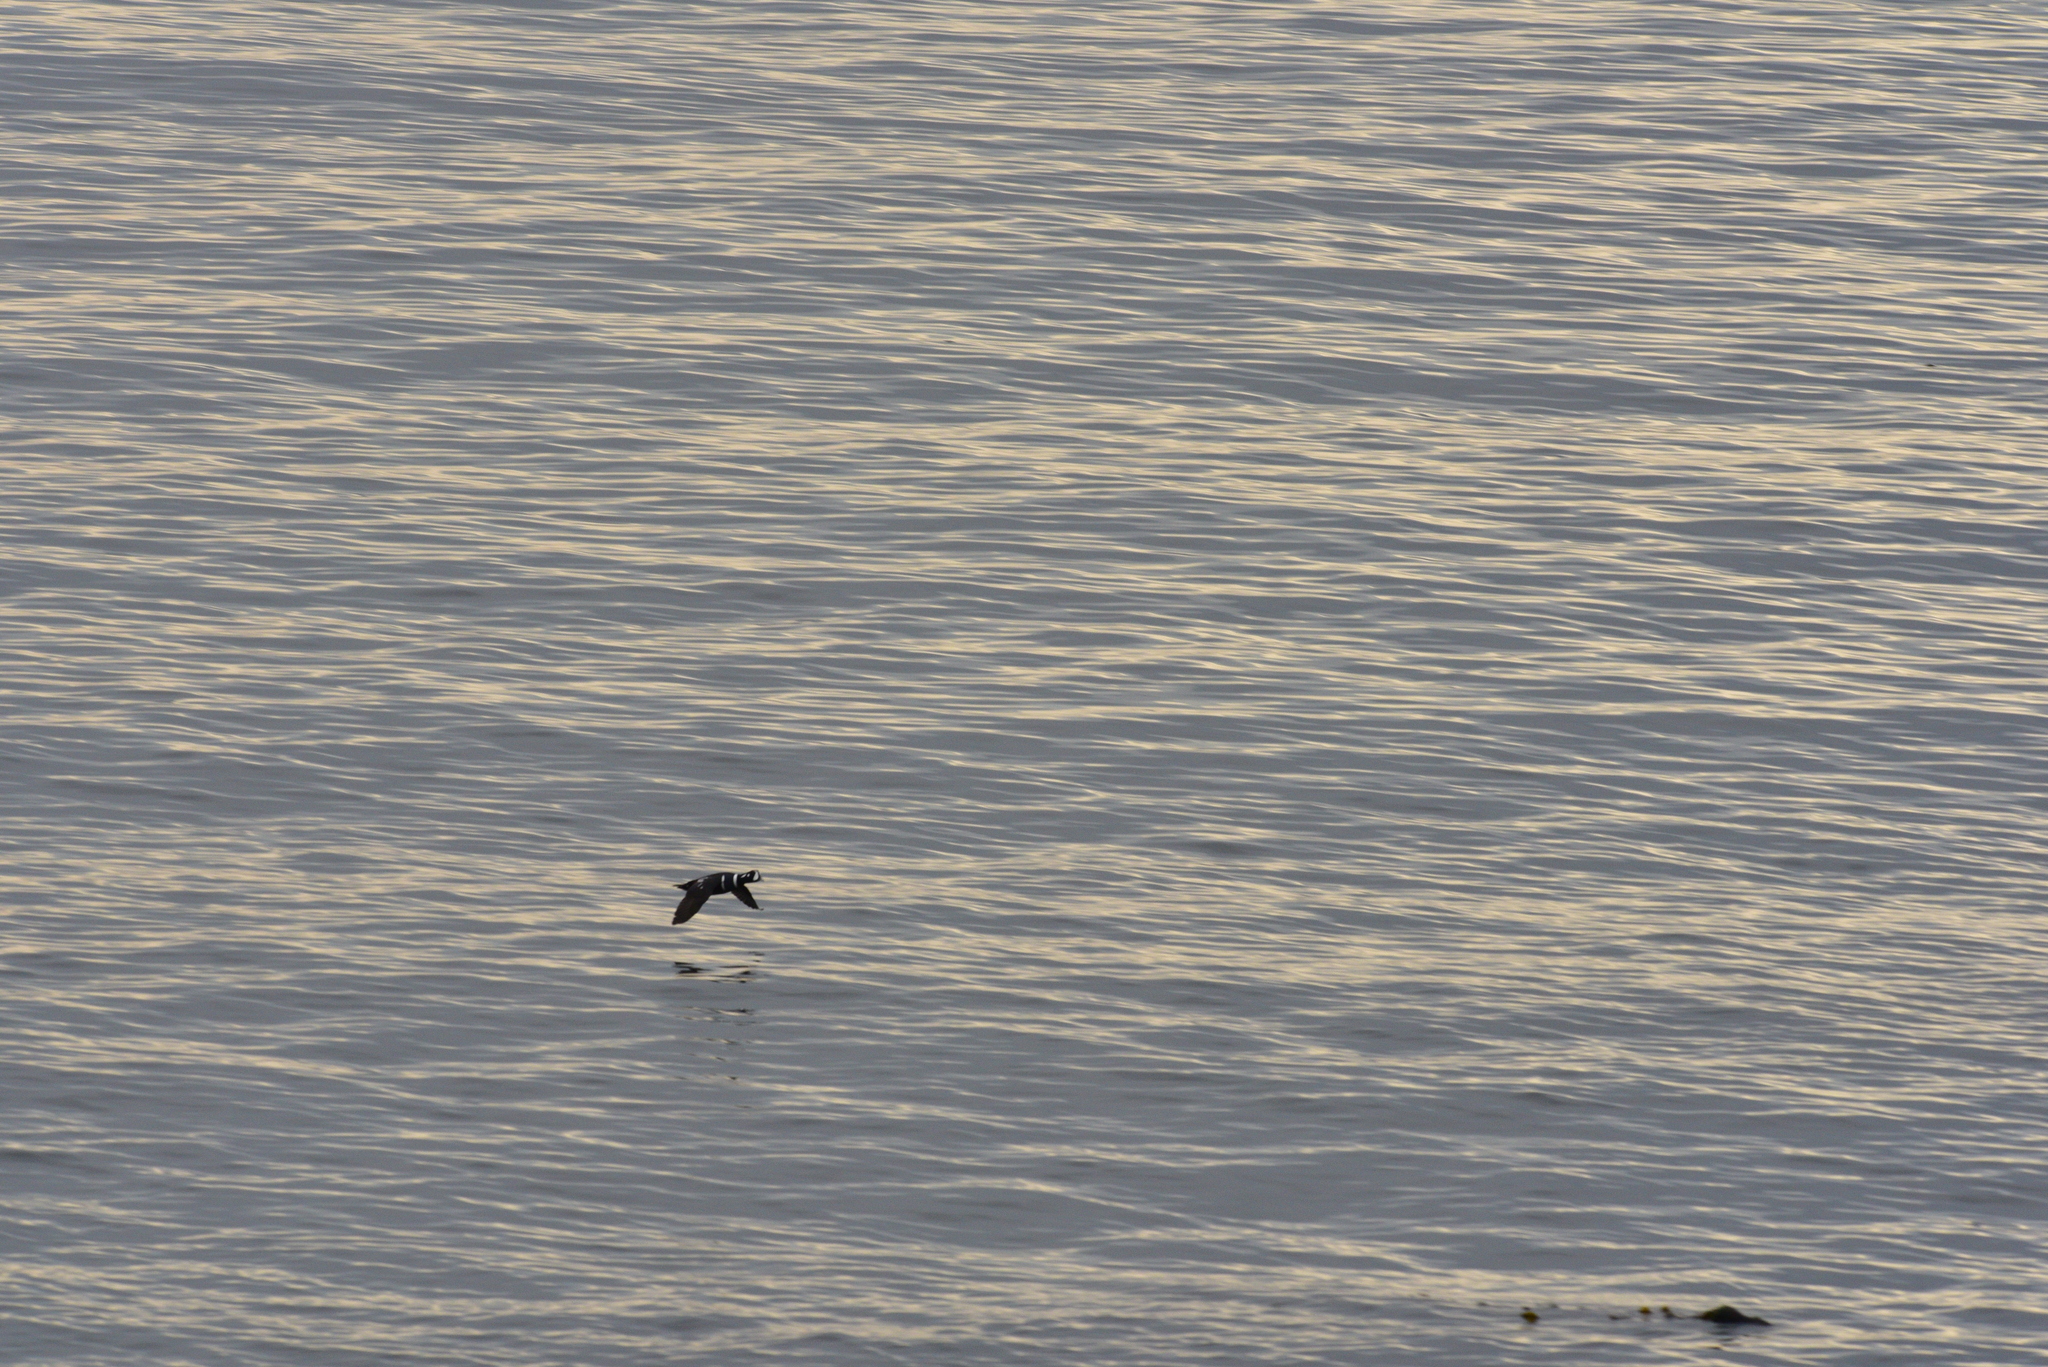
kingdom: Animalia
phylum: Chordata
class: Aves
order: Anseriformes
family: Anatidae
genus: Histrionicus
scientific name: Histrionicus histrionicus
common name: Harlequin duck
